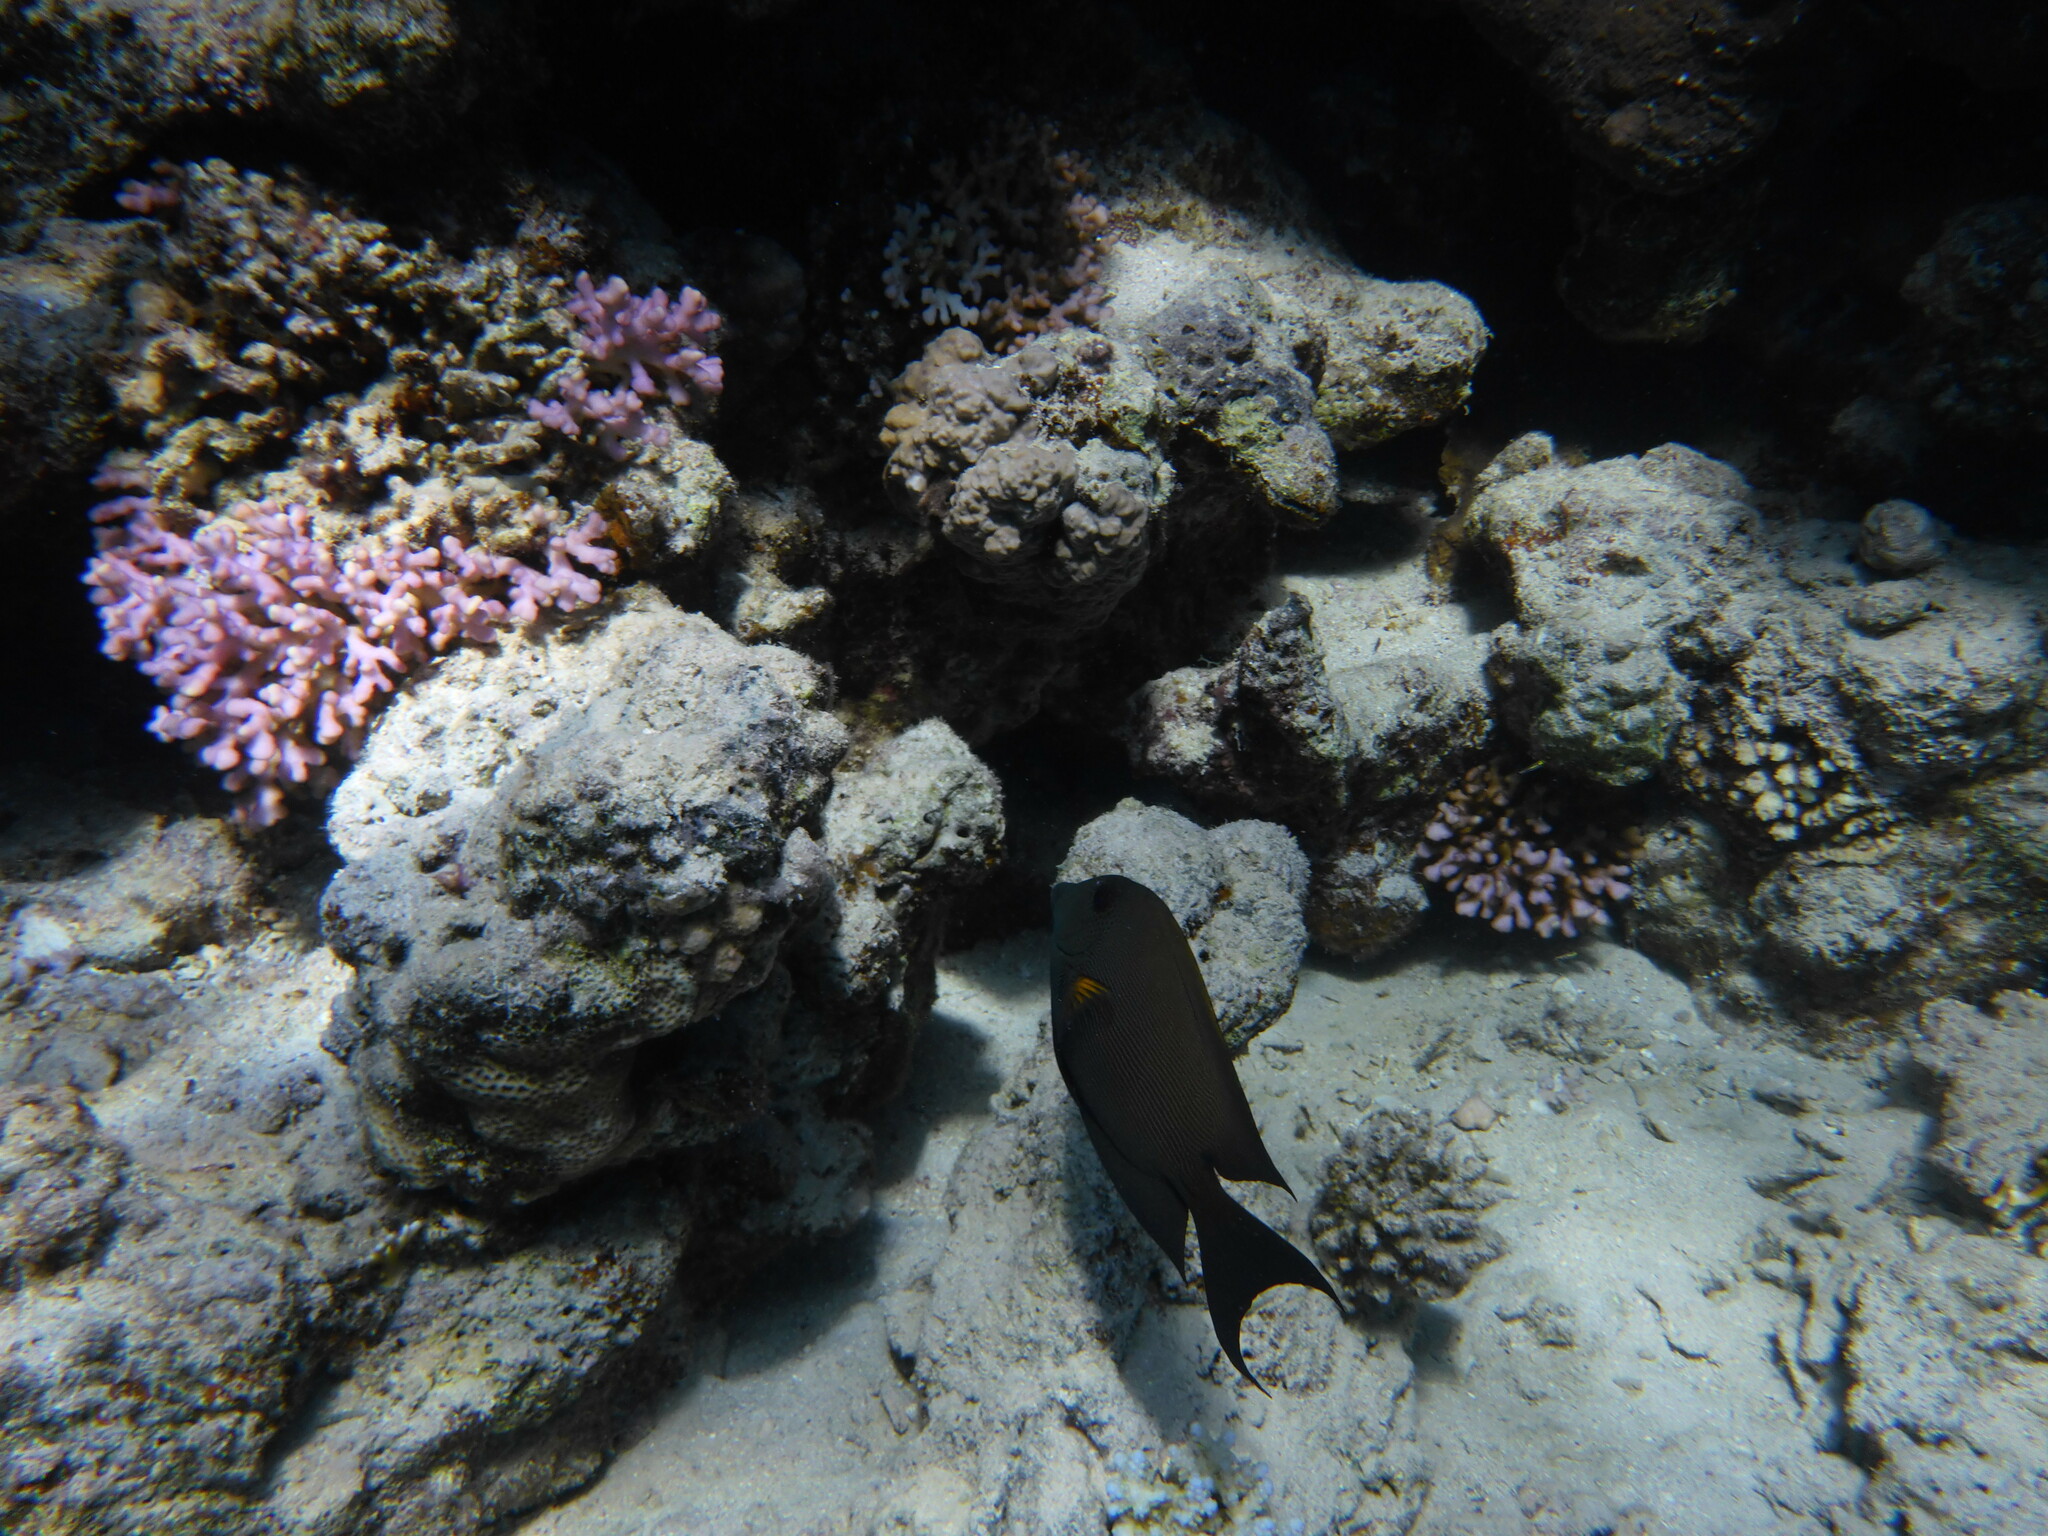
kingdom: Animalia
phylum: Chordata
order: Perciformes
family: Acanthuridae
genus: Ctenochaetus
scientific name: Ctenochaetus striatus
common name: Bristle-toothed surgeonfish
